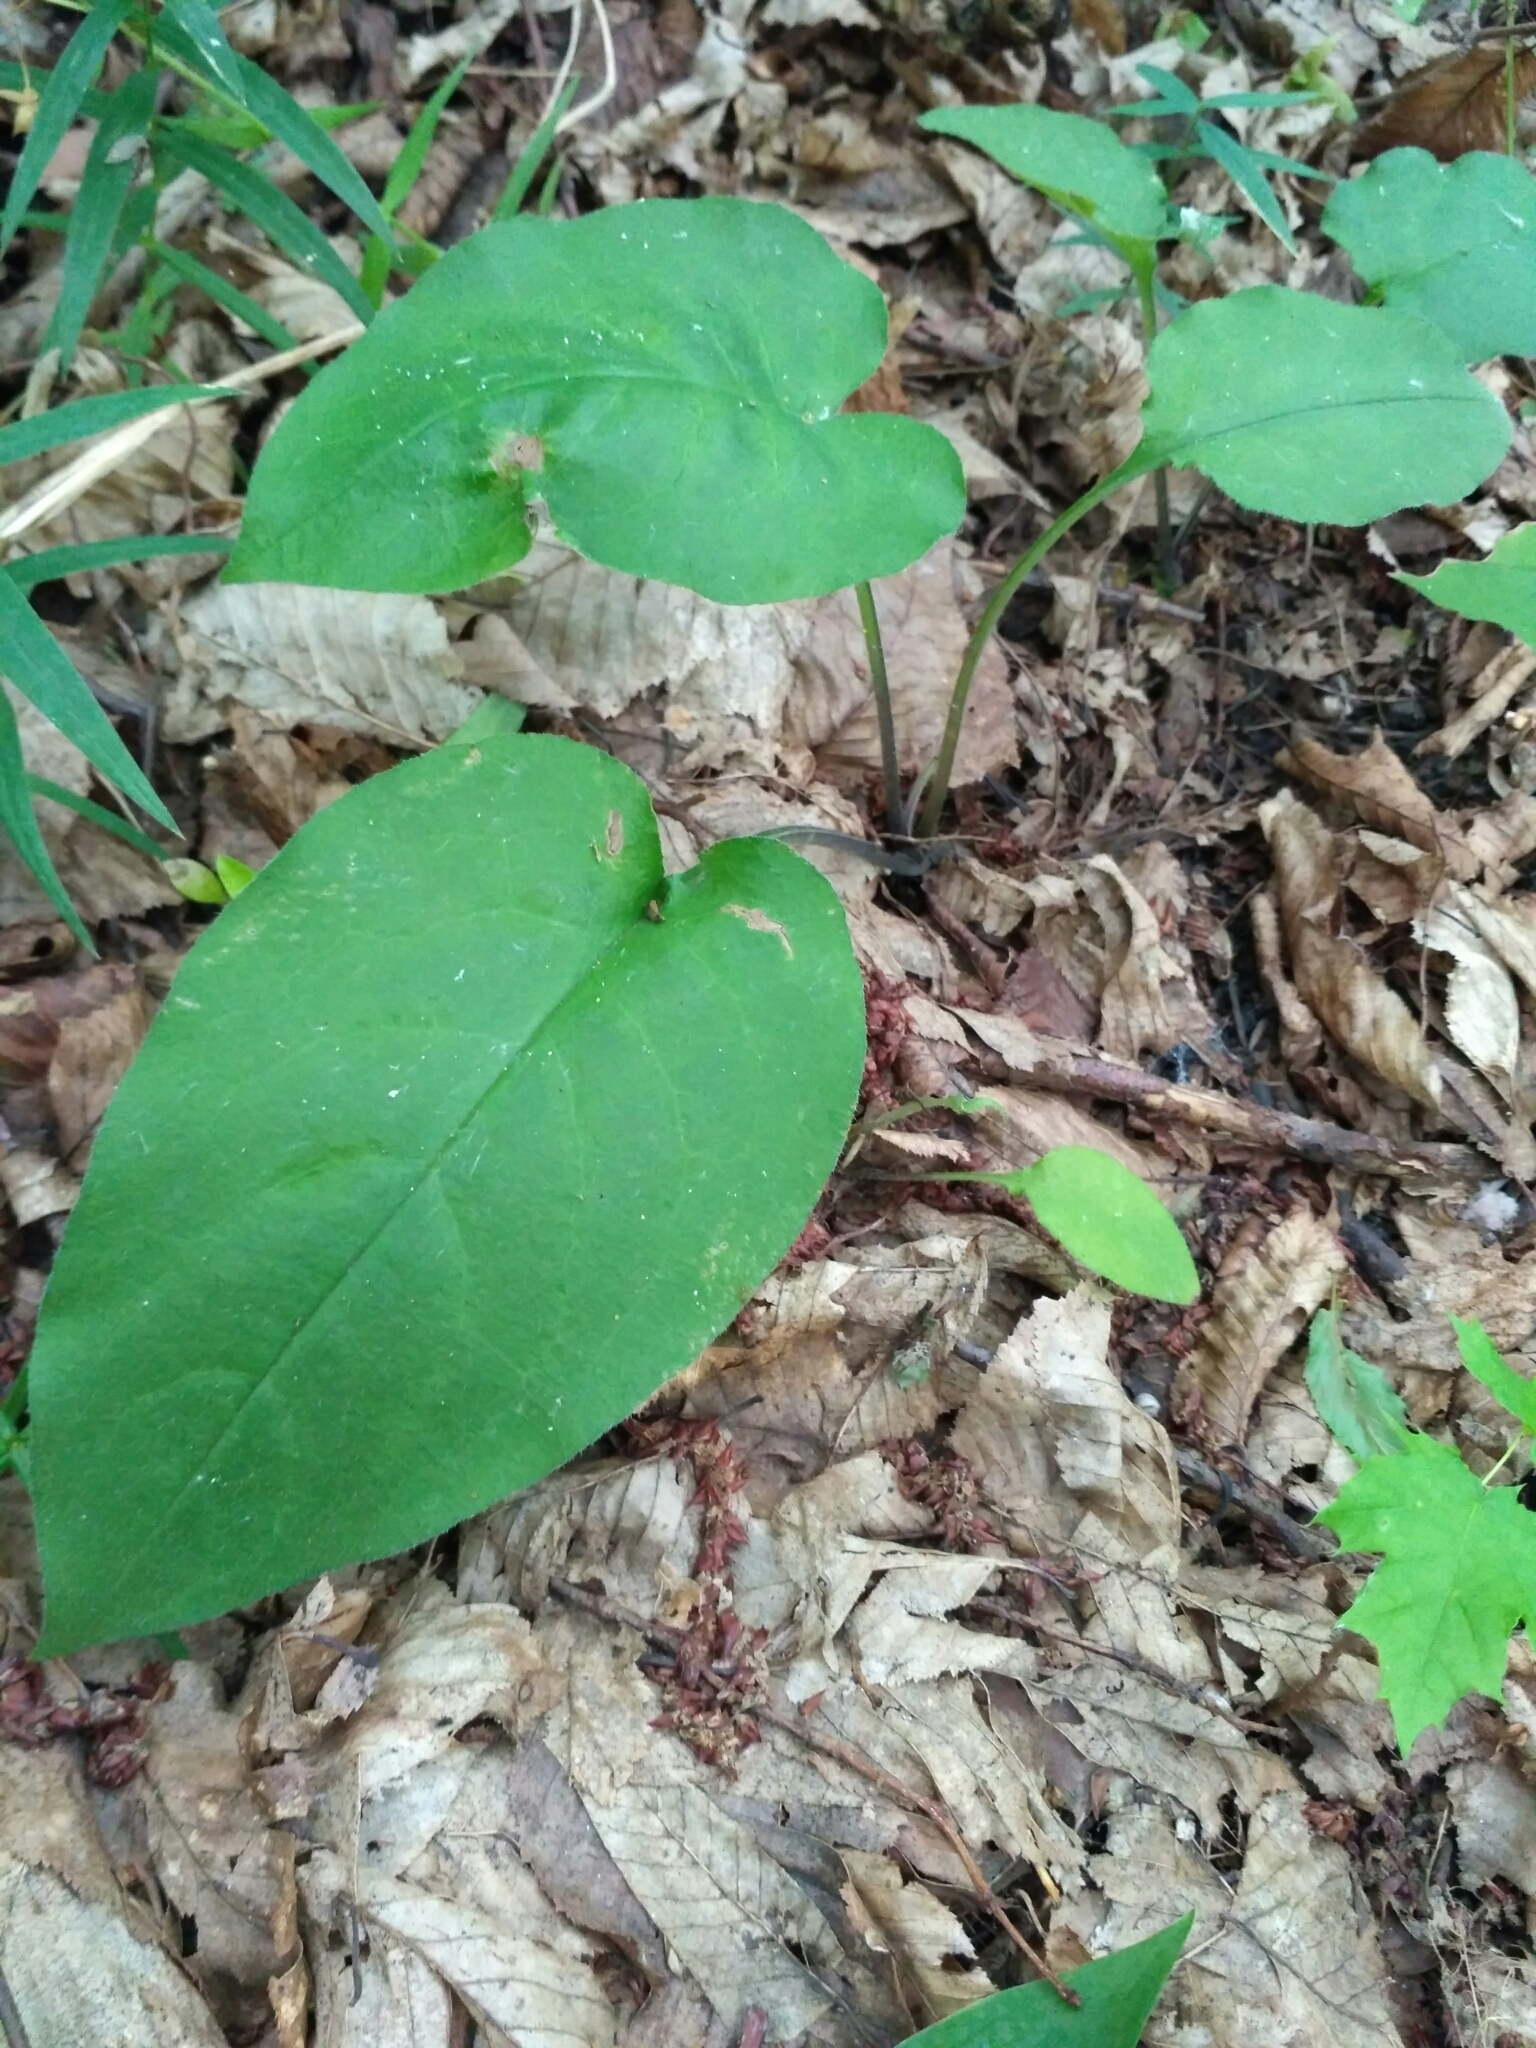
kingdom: Plantae
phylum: Tracheophyta
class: Magnoliopsida
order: Boraginales
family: Boraginaceae
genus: Pulmonaria
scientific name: Pulmonaria obscura
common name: Suffolk lungwort
